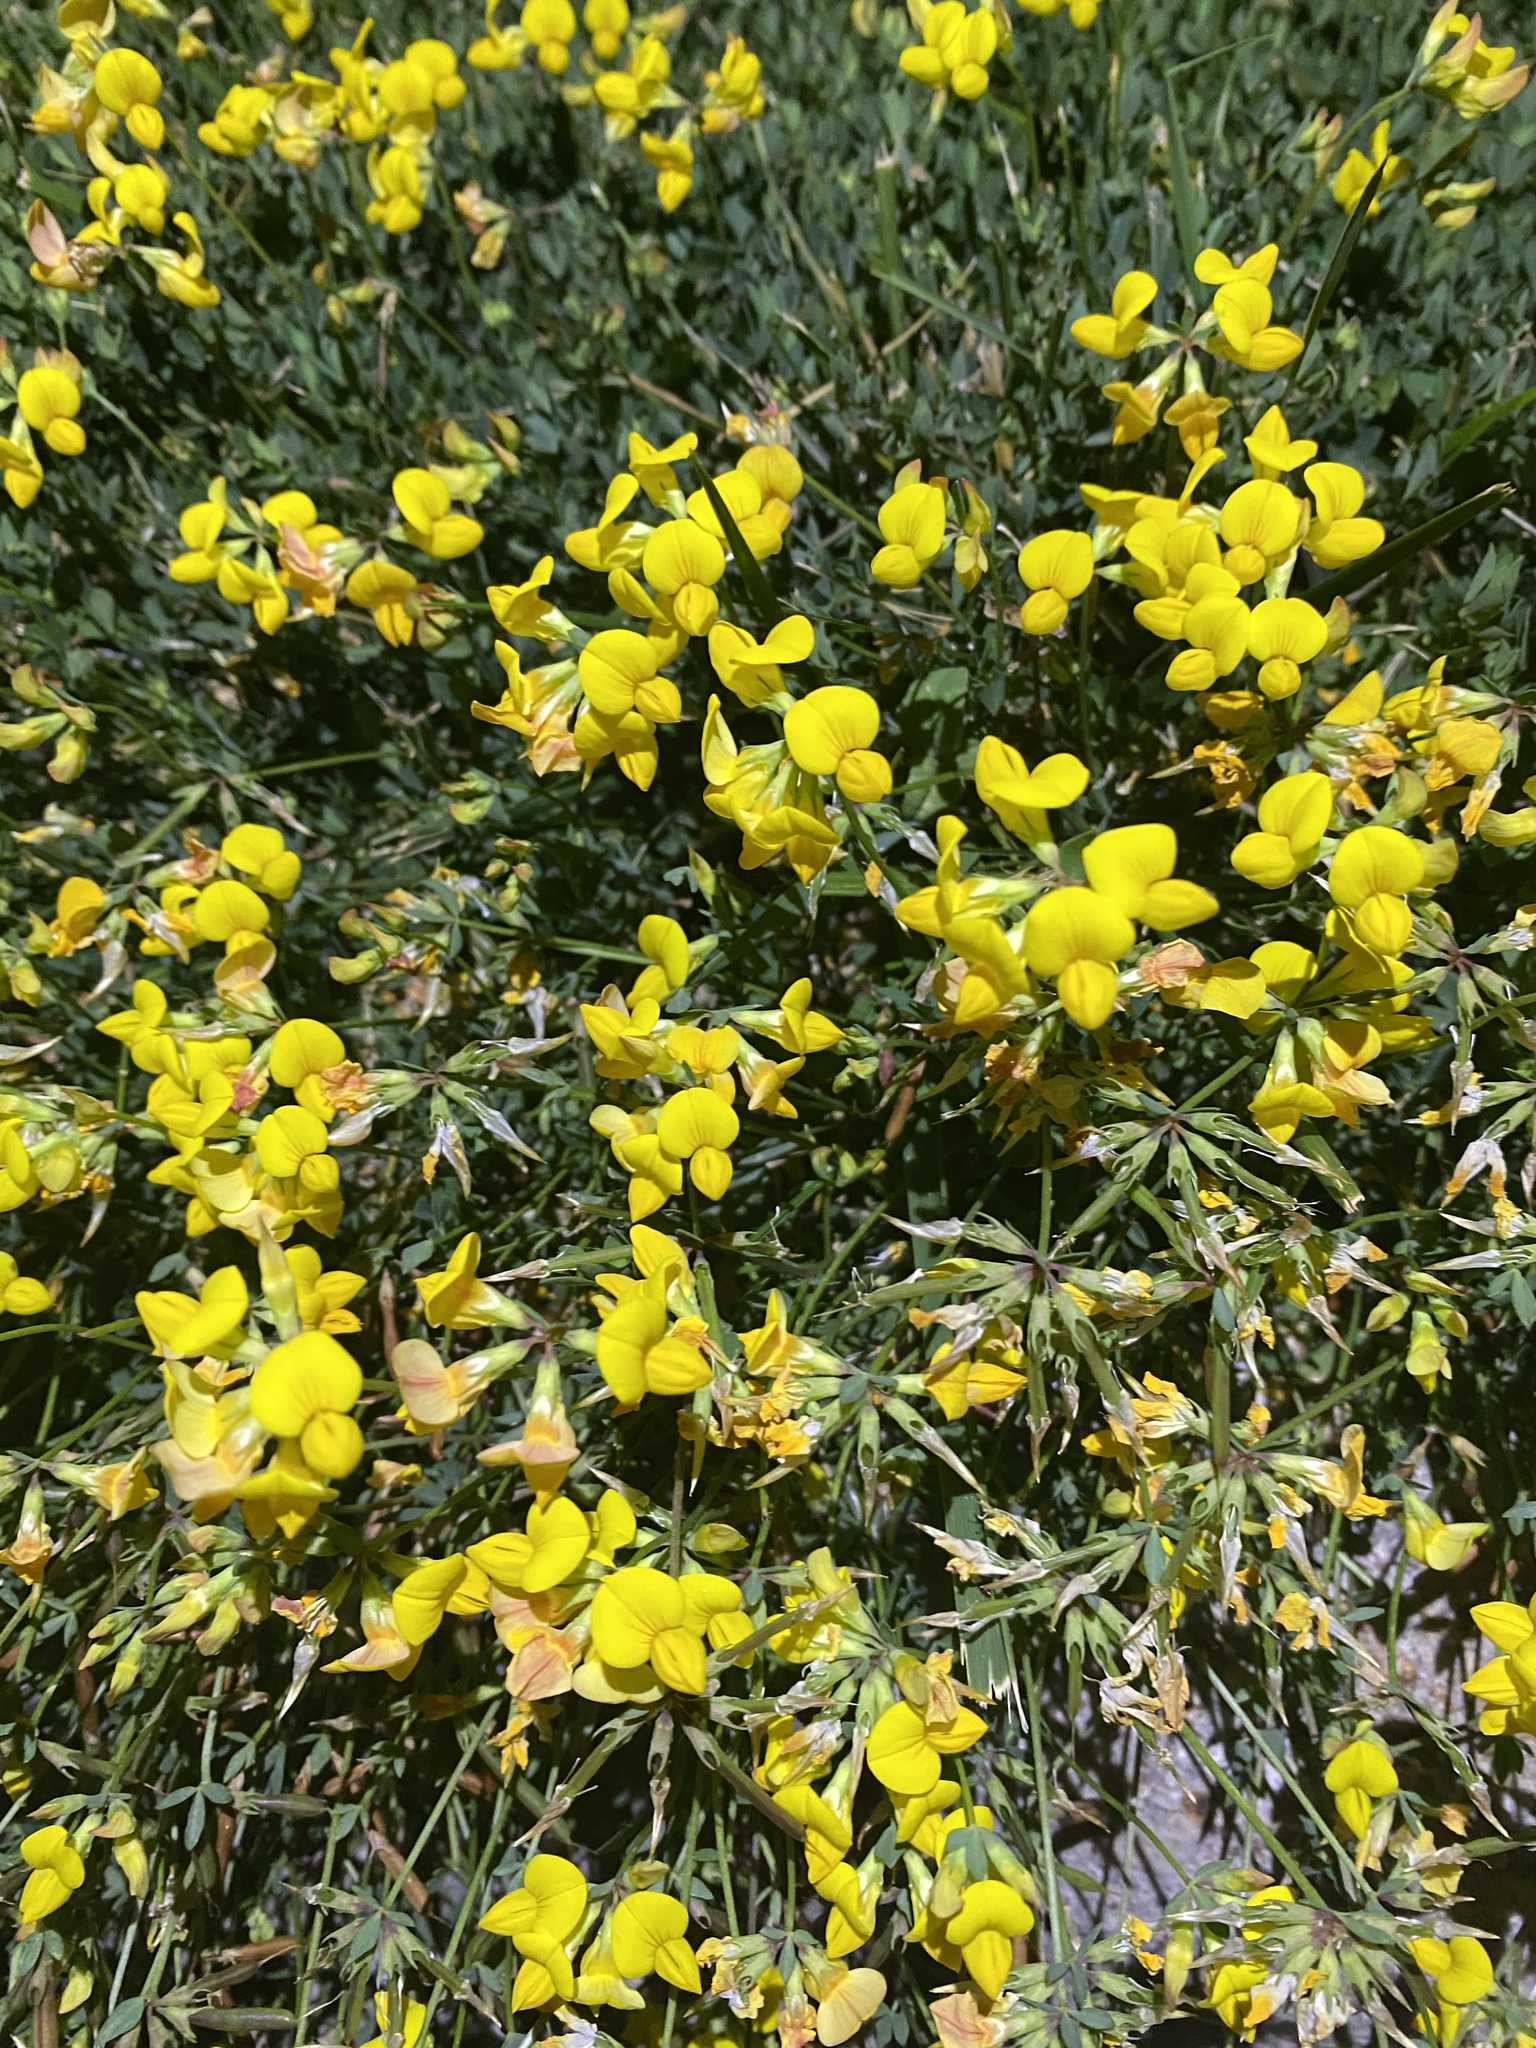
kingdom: Plantae
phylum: Tracheophyta
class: Magnoliopsida
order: Fabales
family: Fabaceae
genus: Lotus
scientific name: Lotus corniculatus
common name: Common bird's-foot-trefoil
